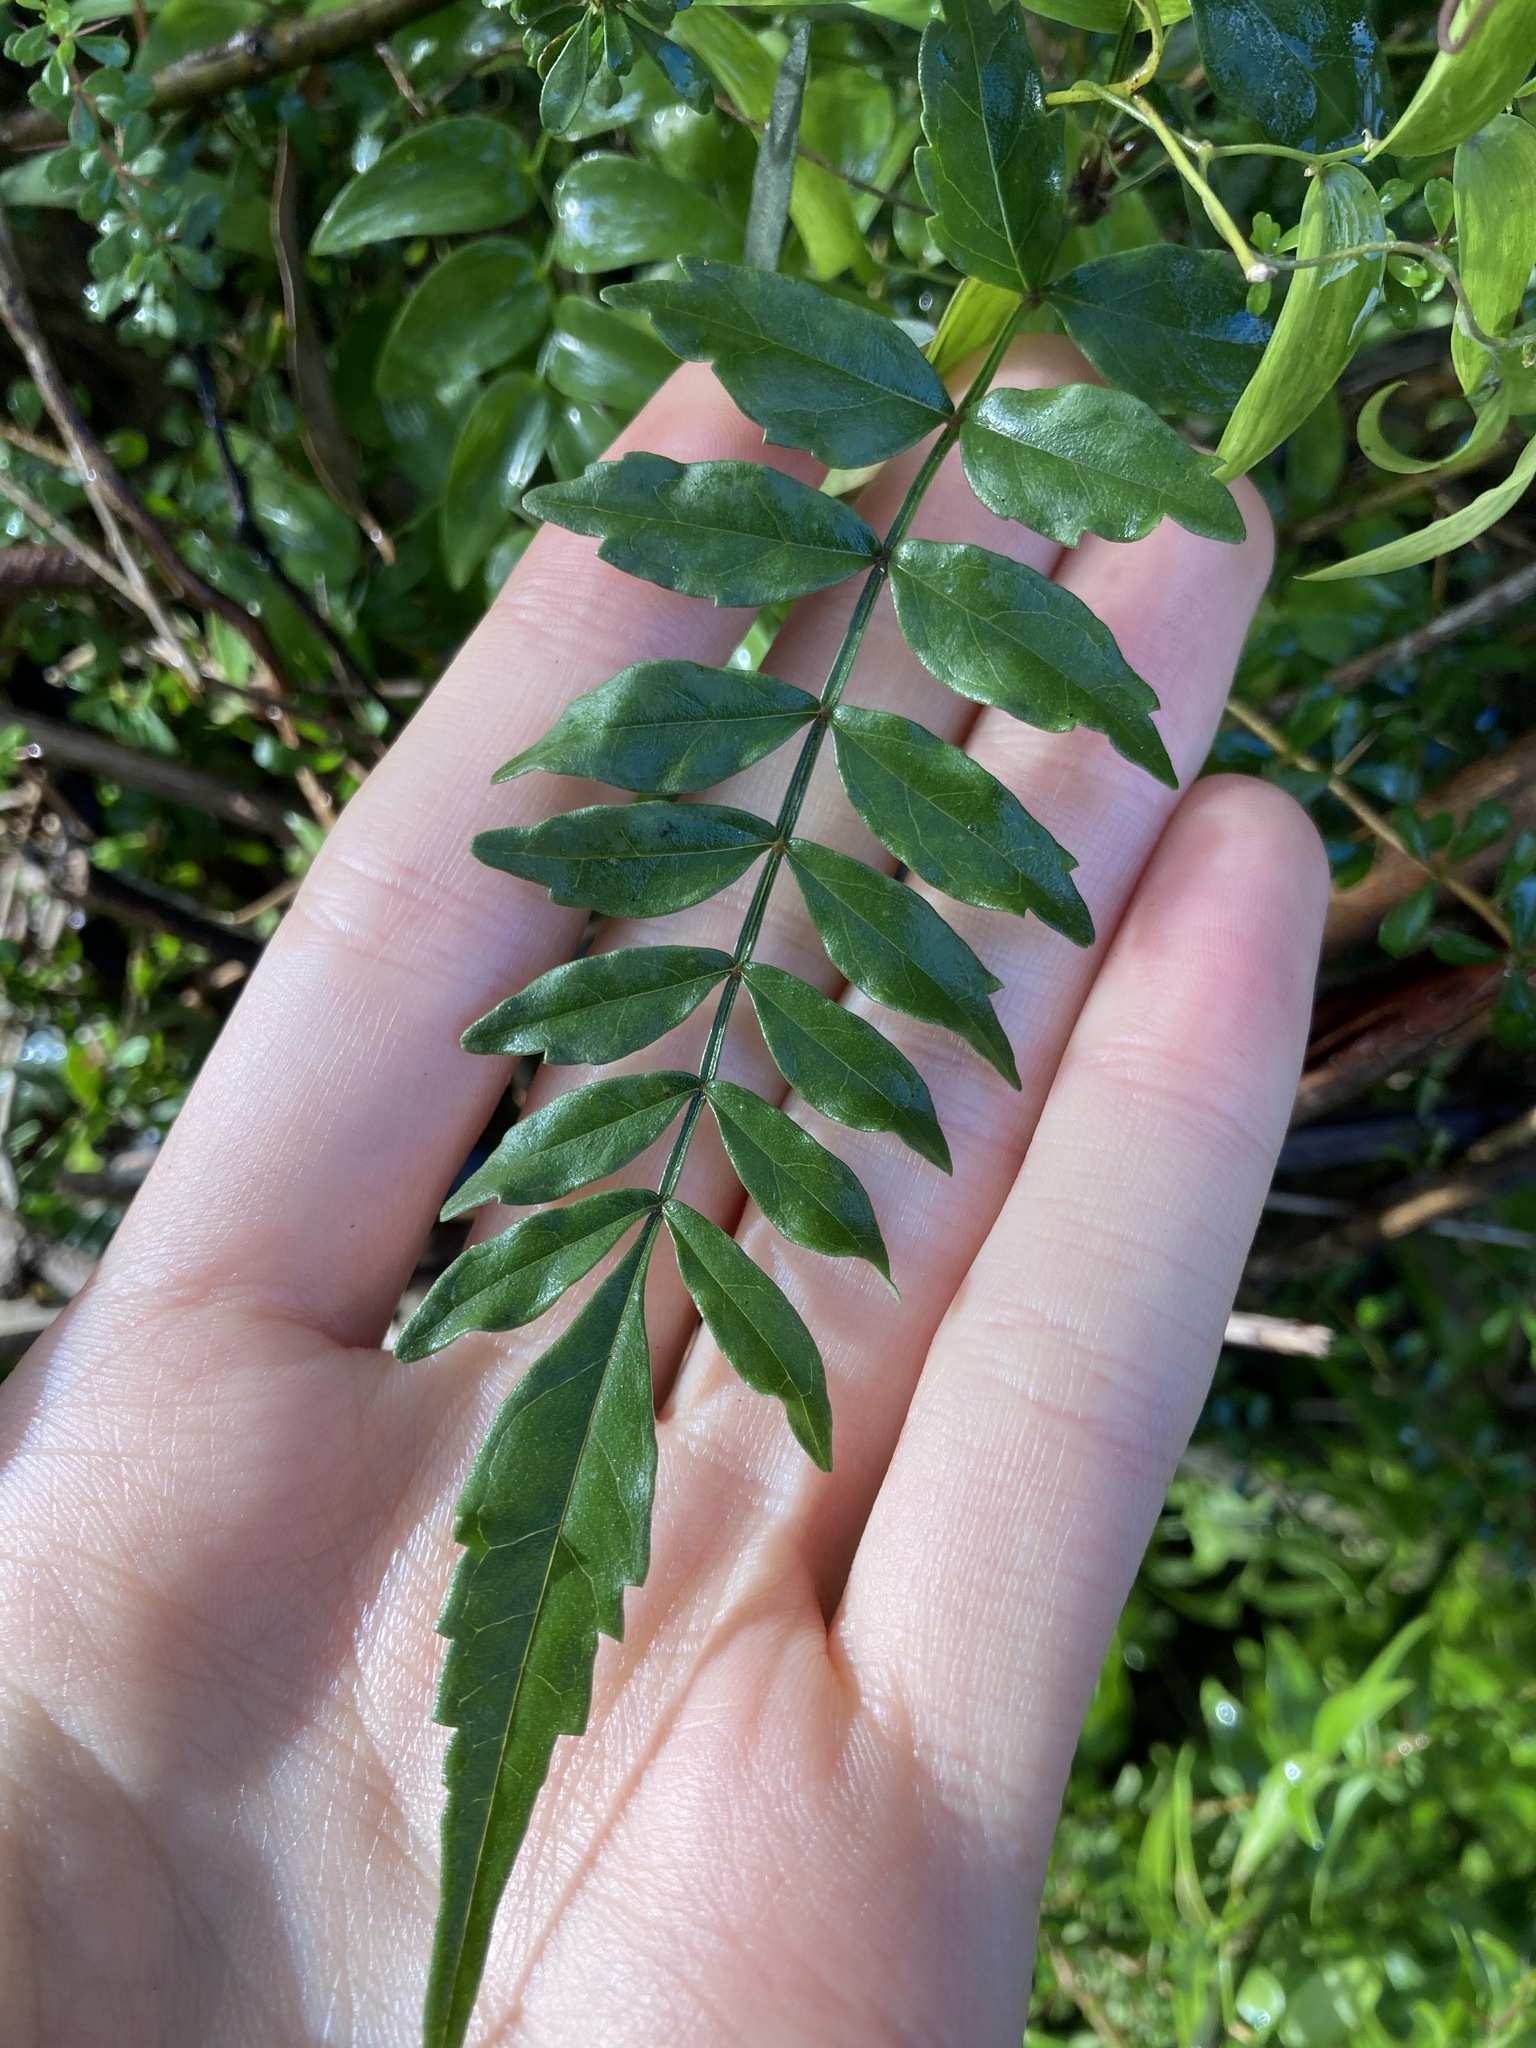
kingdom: Plantae
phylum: Tracheophyta
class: Magnoliopsida
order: Lamiales
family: Bignoniaceae
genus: Pandorea
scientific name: Pandorea pandorana
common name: Wonga-wonga-vine
